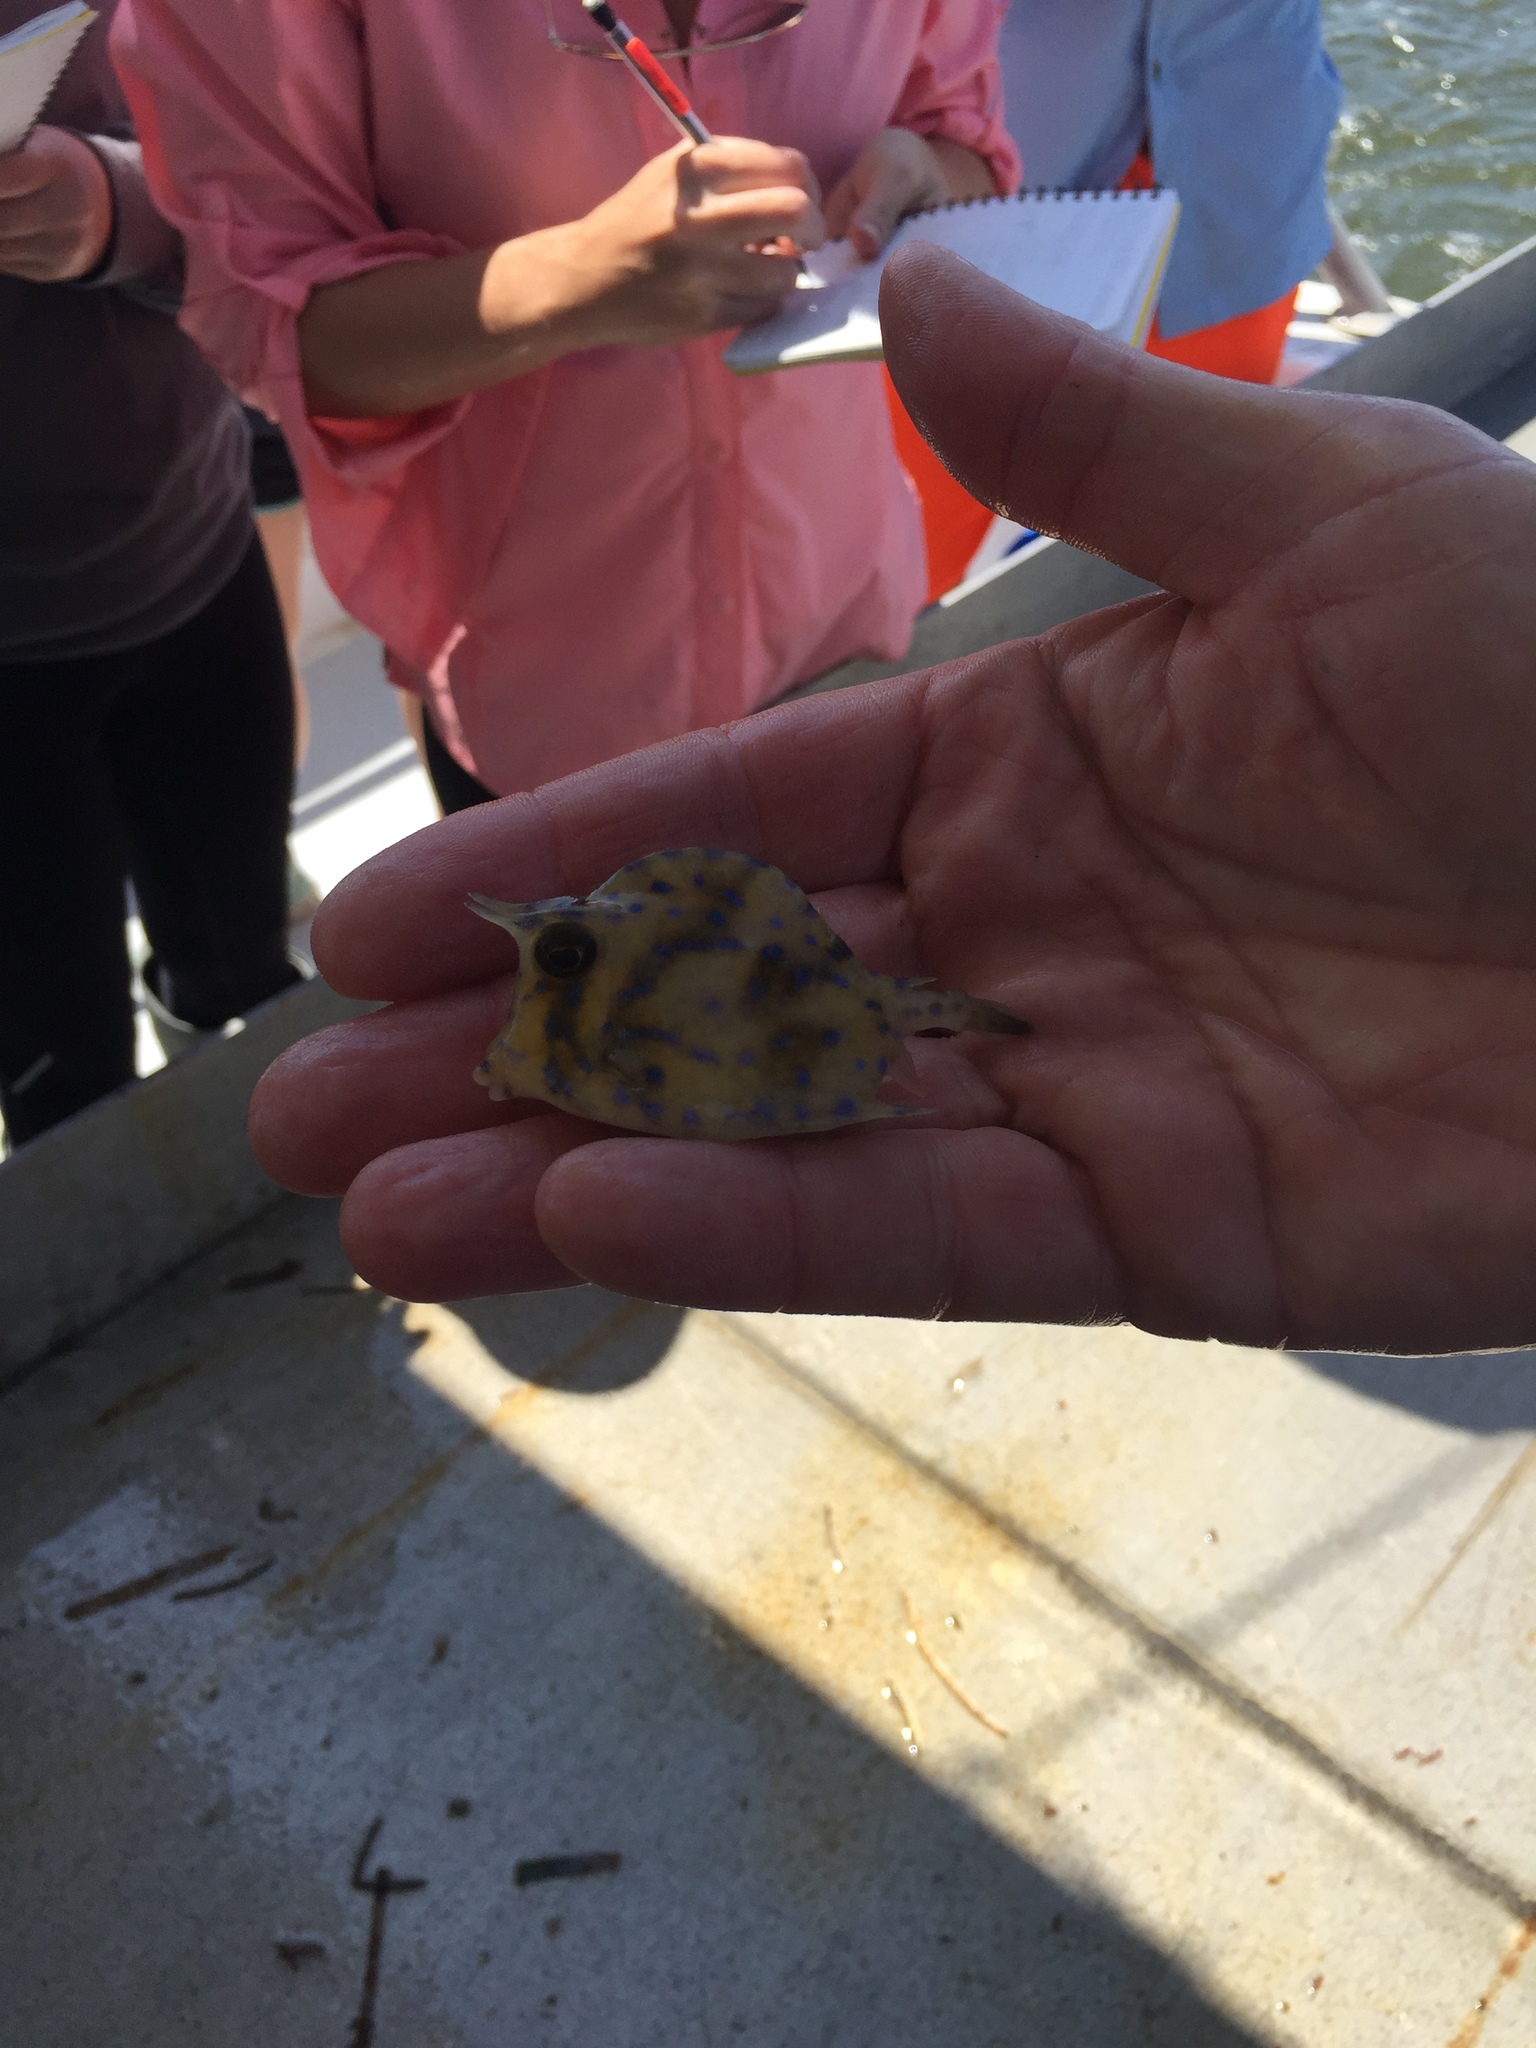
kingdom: Animalia
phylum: Chordata
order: Tetraodontiformes
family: Ostraciidae
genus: Acanthostracion
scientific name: Acanthostracion quadricornis
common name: Scrawled cowfish
